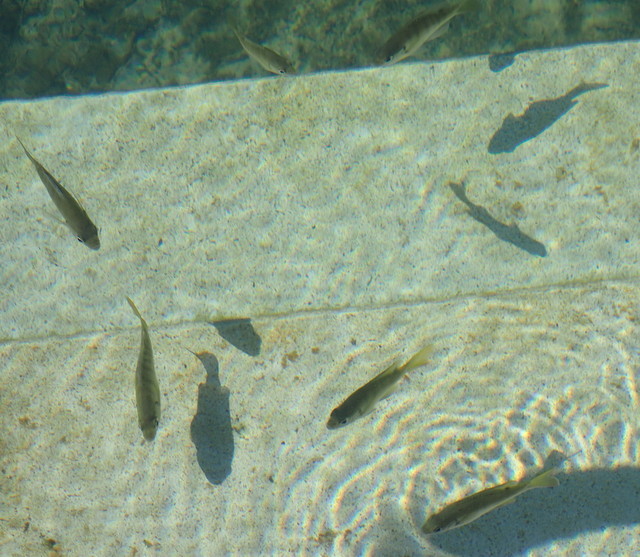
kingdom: Animalia
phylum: Chordata
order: Perciformes
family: Centrarchidae
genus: Lepomis
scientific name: Lepomis macrochirus
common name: Bluegill
